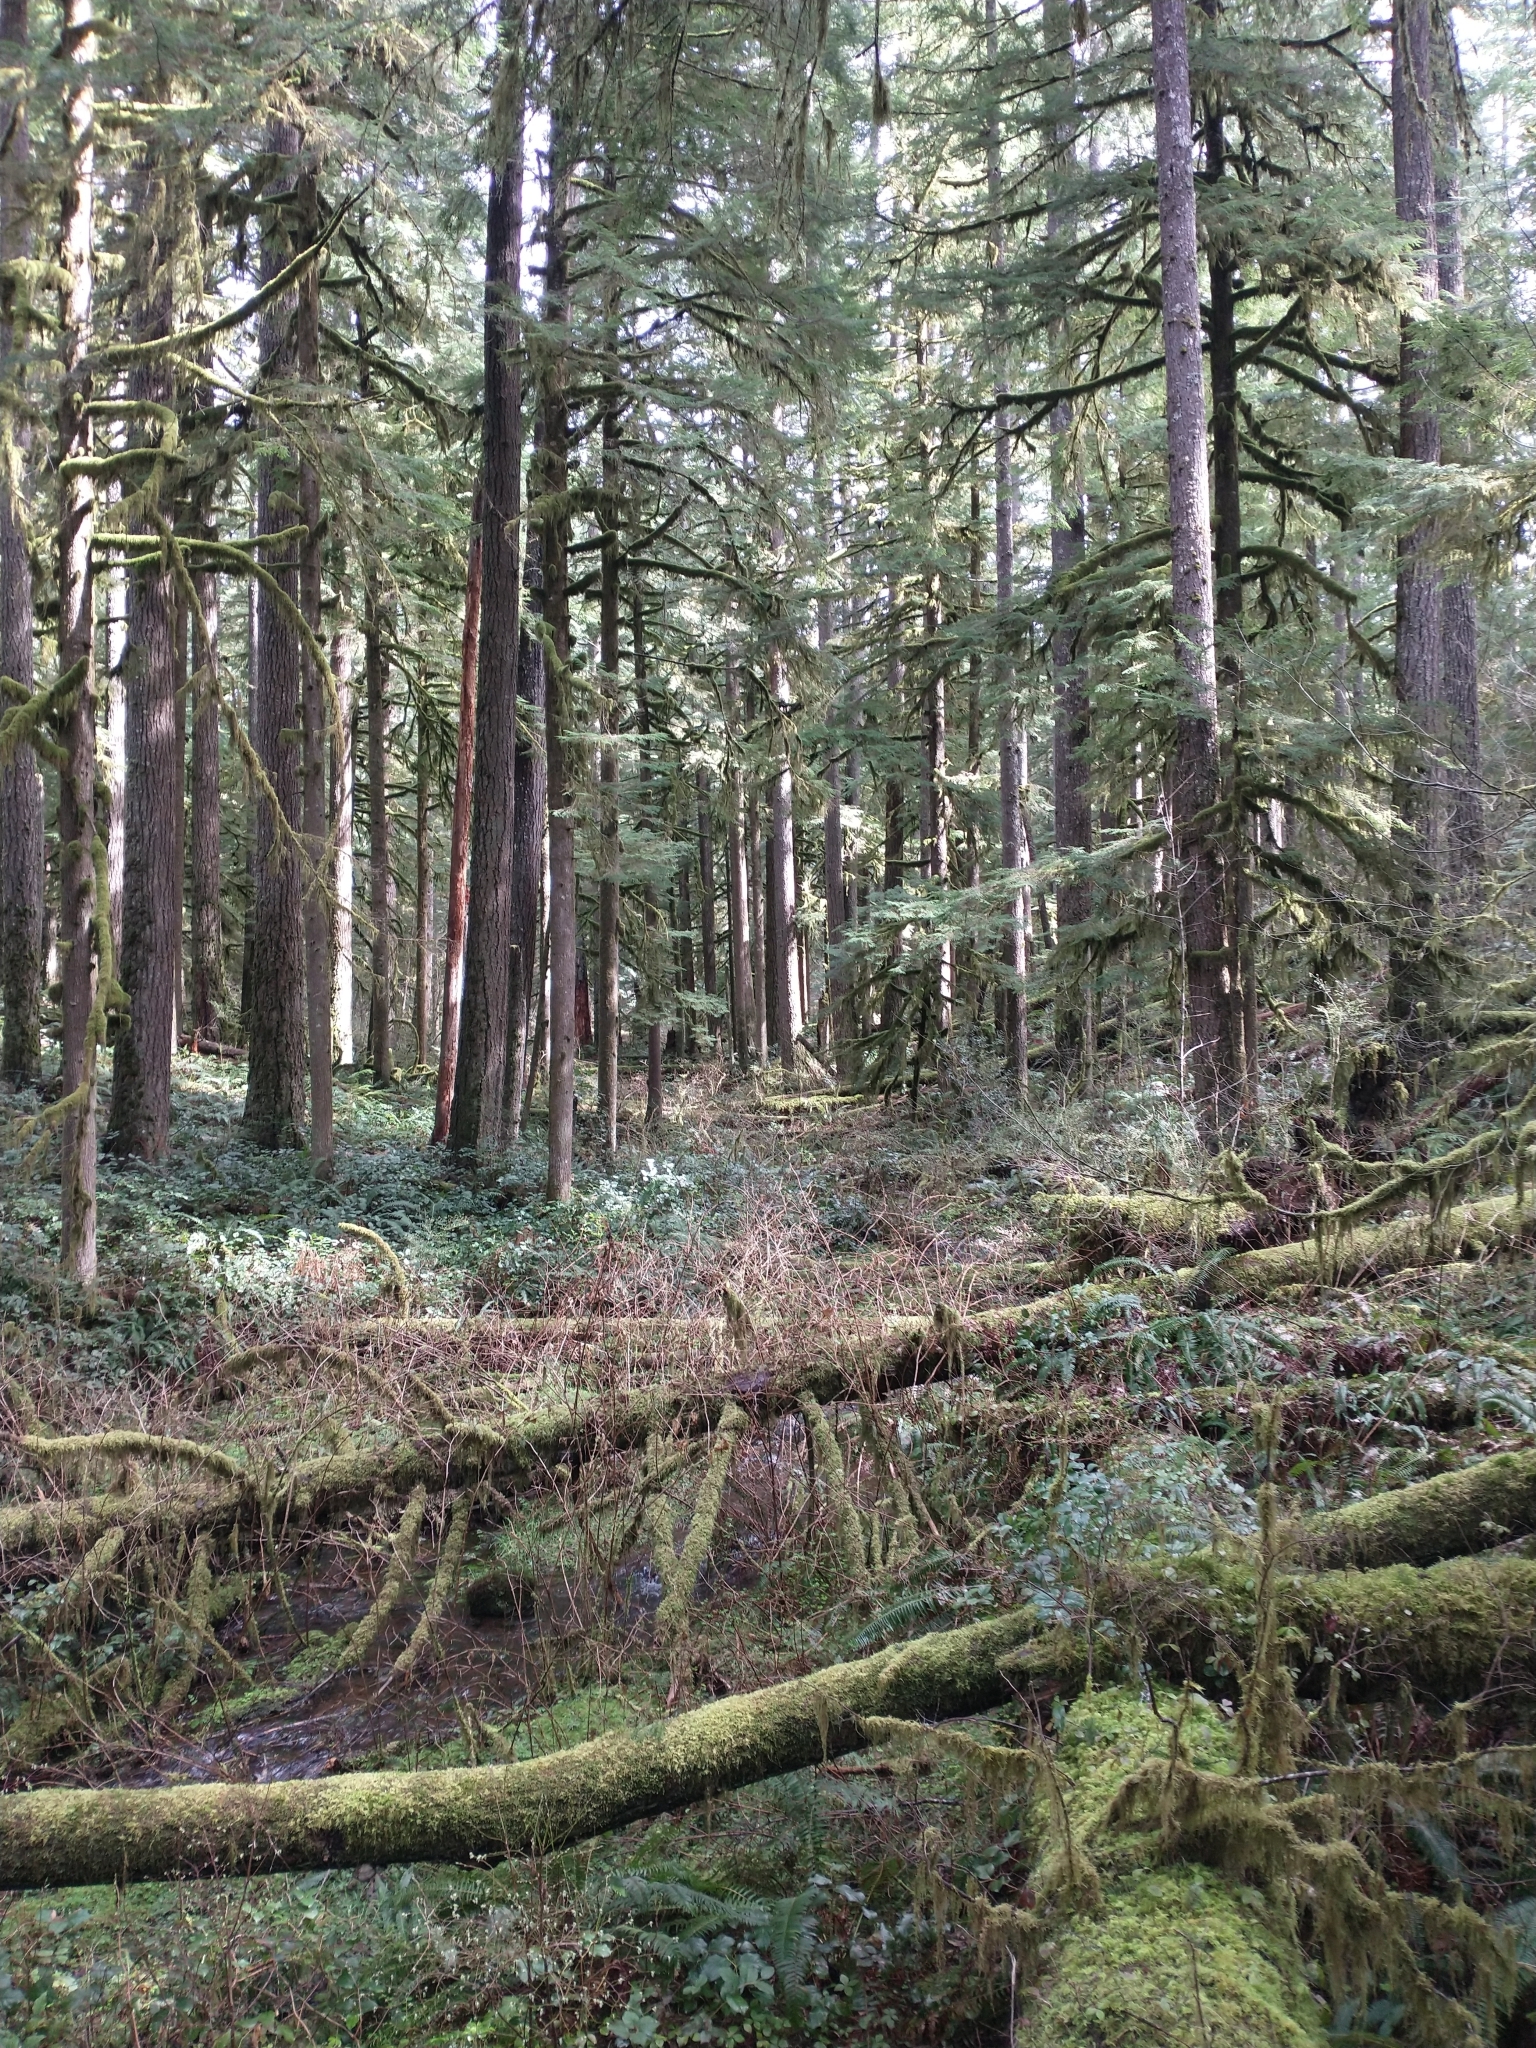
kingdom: Plantae
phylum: Tracheophyta
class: Pinopsida
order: Pinales
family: Pinaceae
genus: Pseudotsuga
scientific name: Pseudotsuga menziesii
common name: Douglas fir
